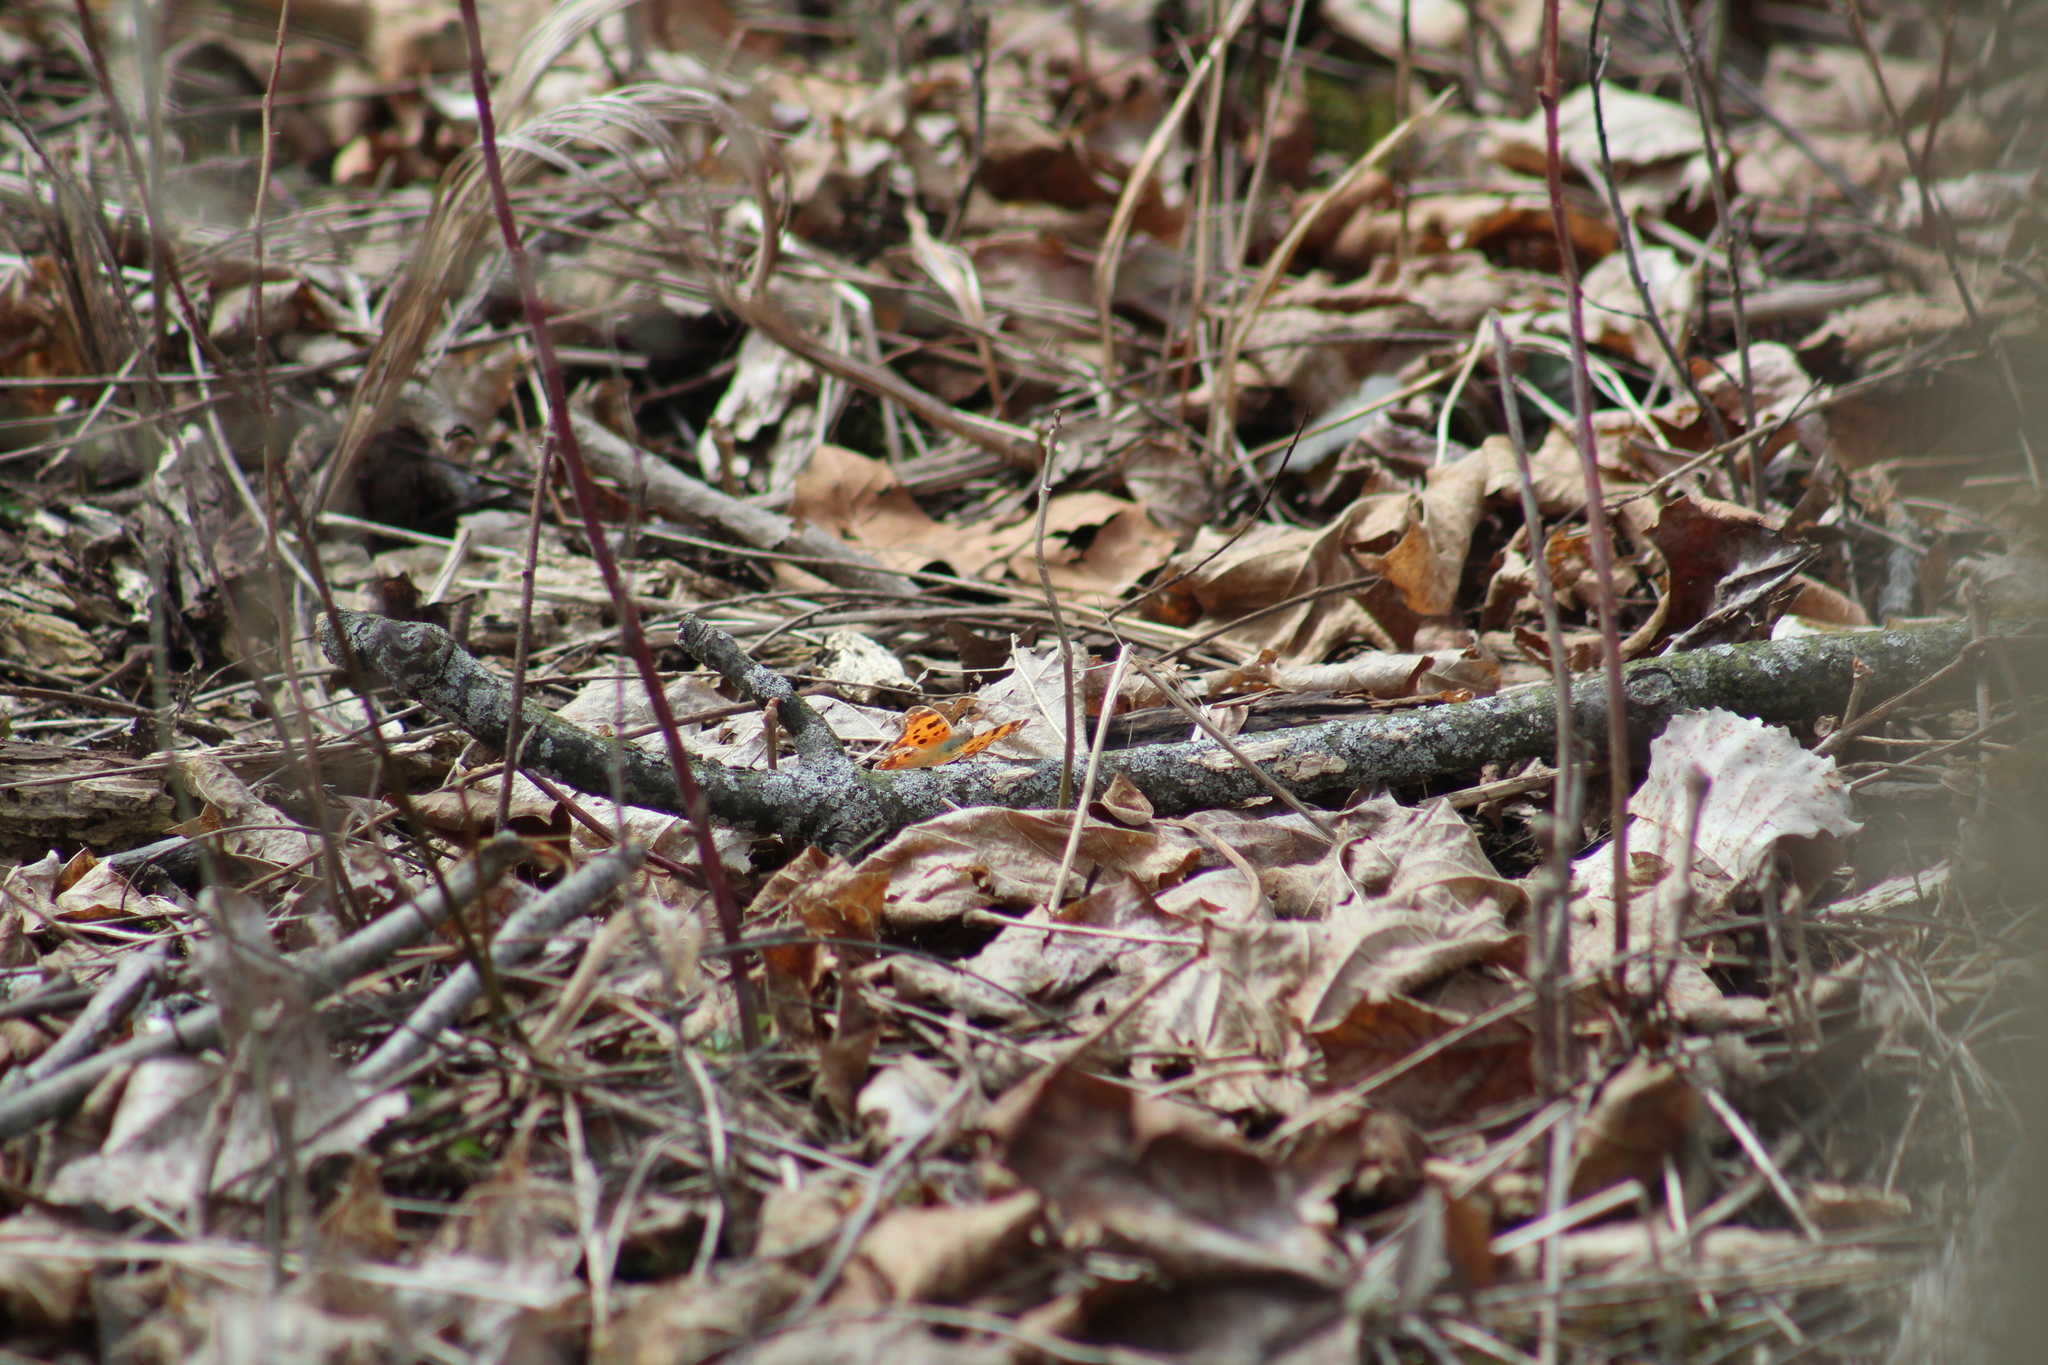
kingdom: Animalia
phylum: Arthropoda
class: Insecta
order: Lepidoptera
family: Nymphalidae
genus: Polygonia
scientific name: Polygonia comma
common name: Eastern comma
